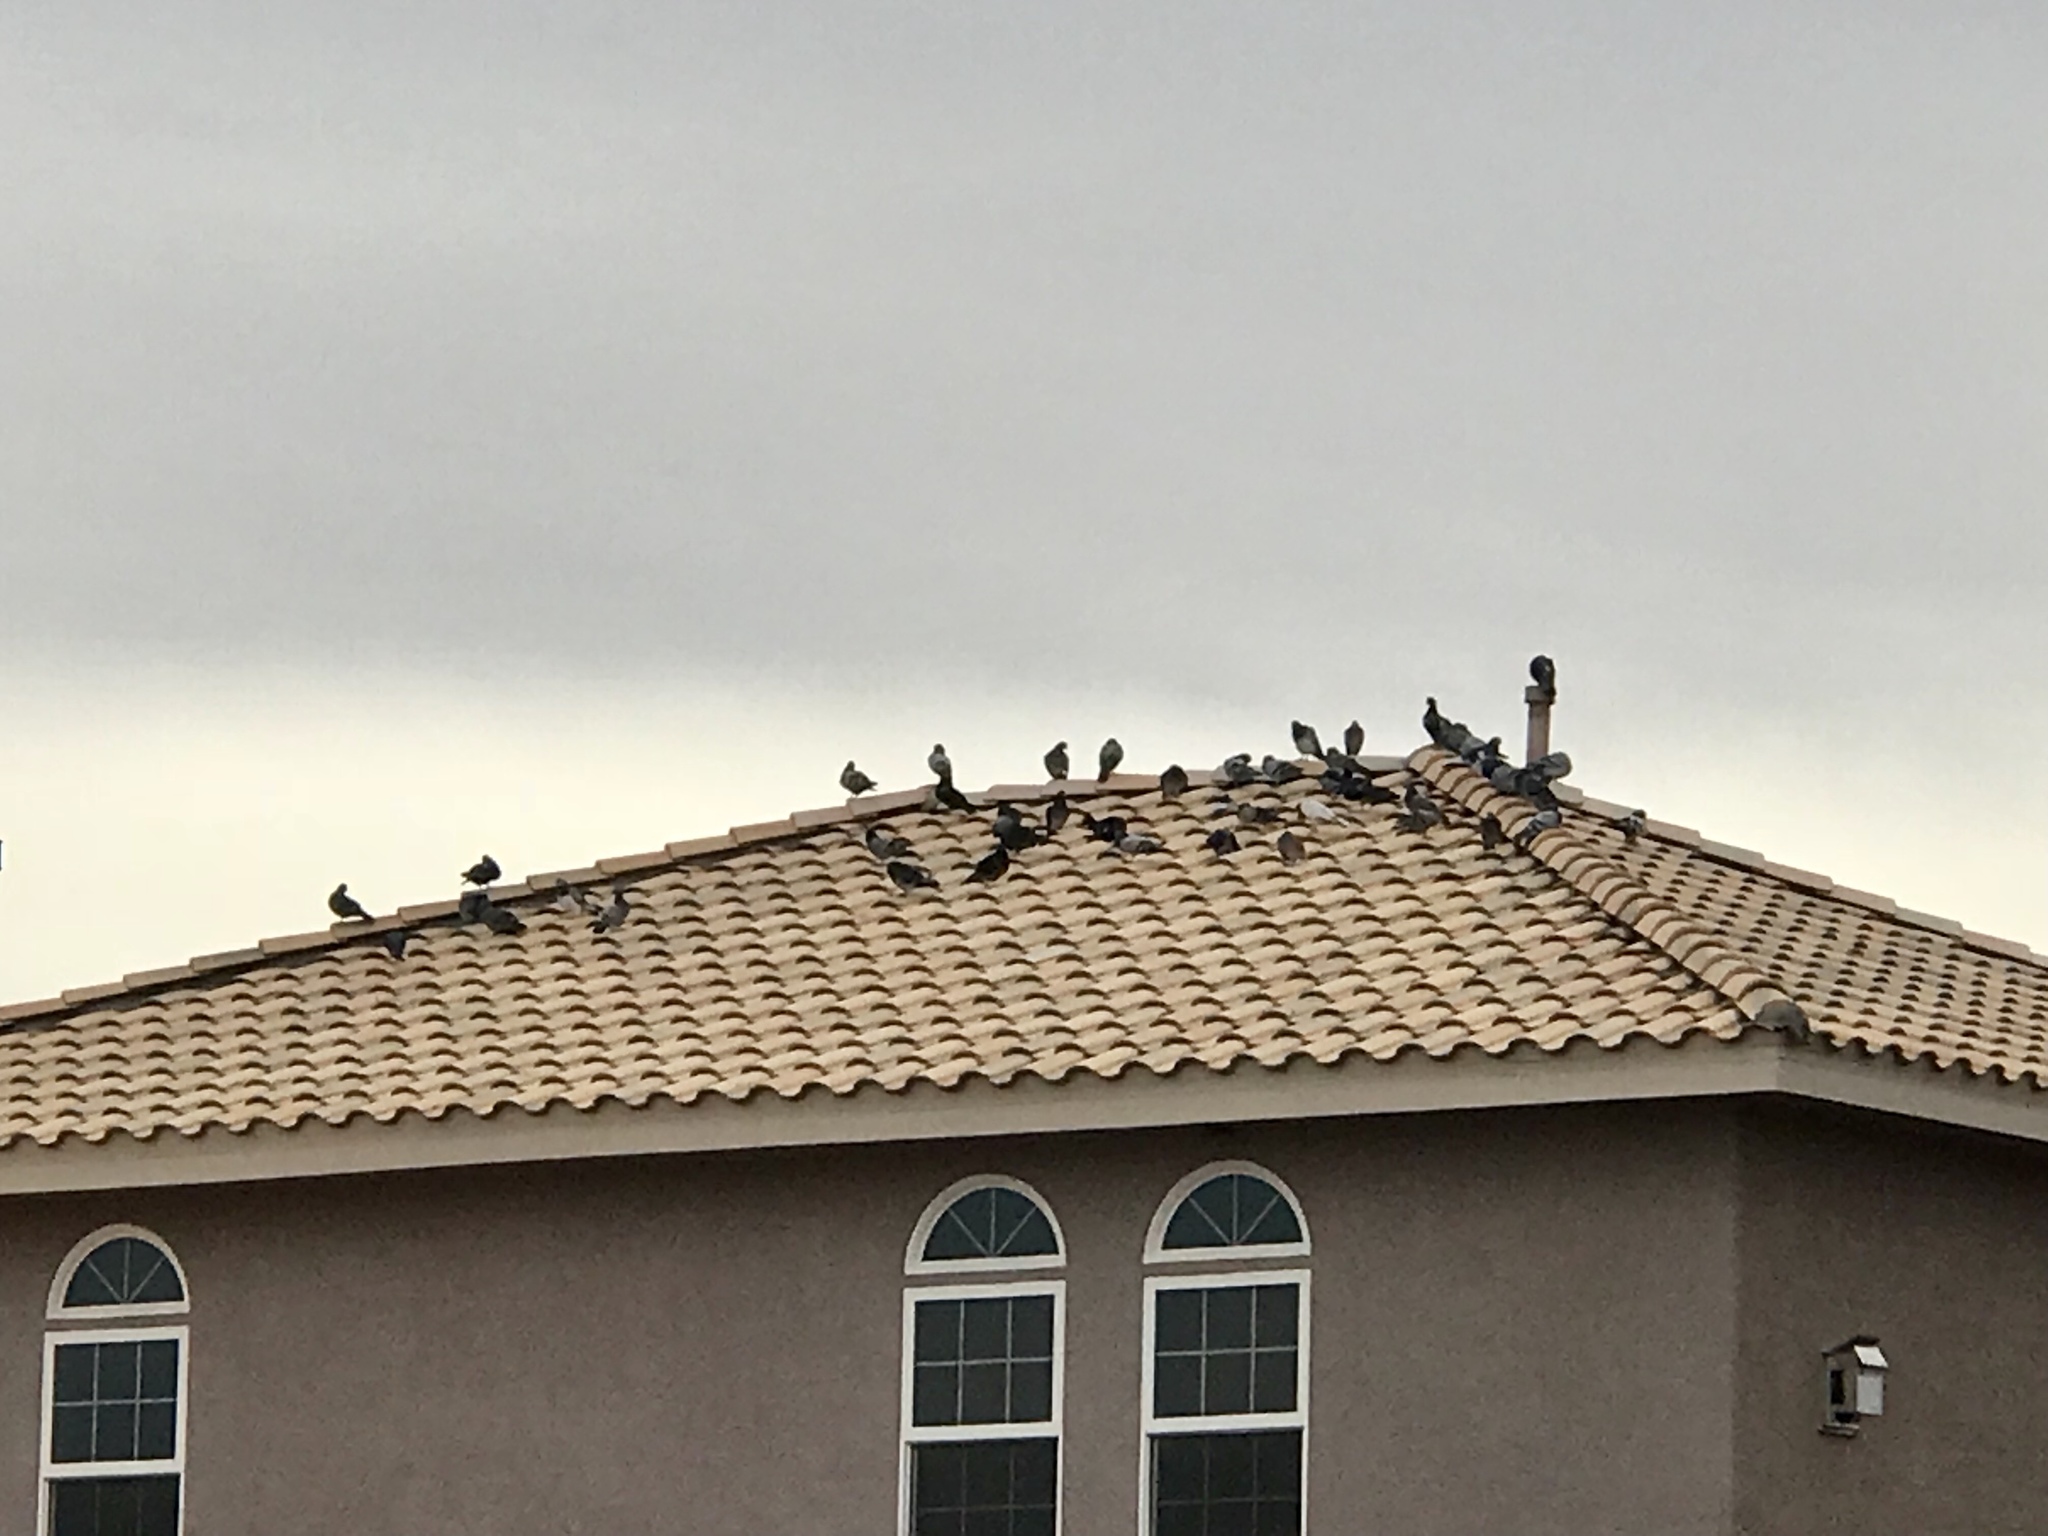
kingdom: Animalia
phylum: Chordata
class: Aves
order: Columbiformes
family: Columbidae
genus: Columba
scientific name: Columba livia
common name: Rock pigeon
